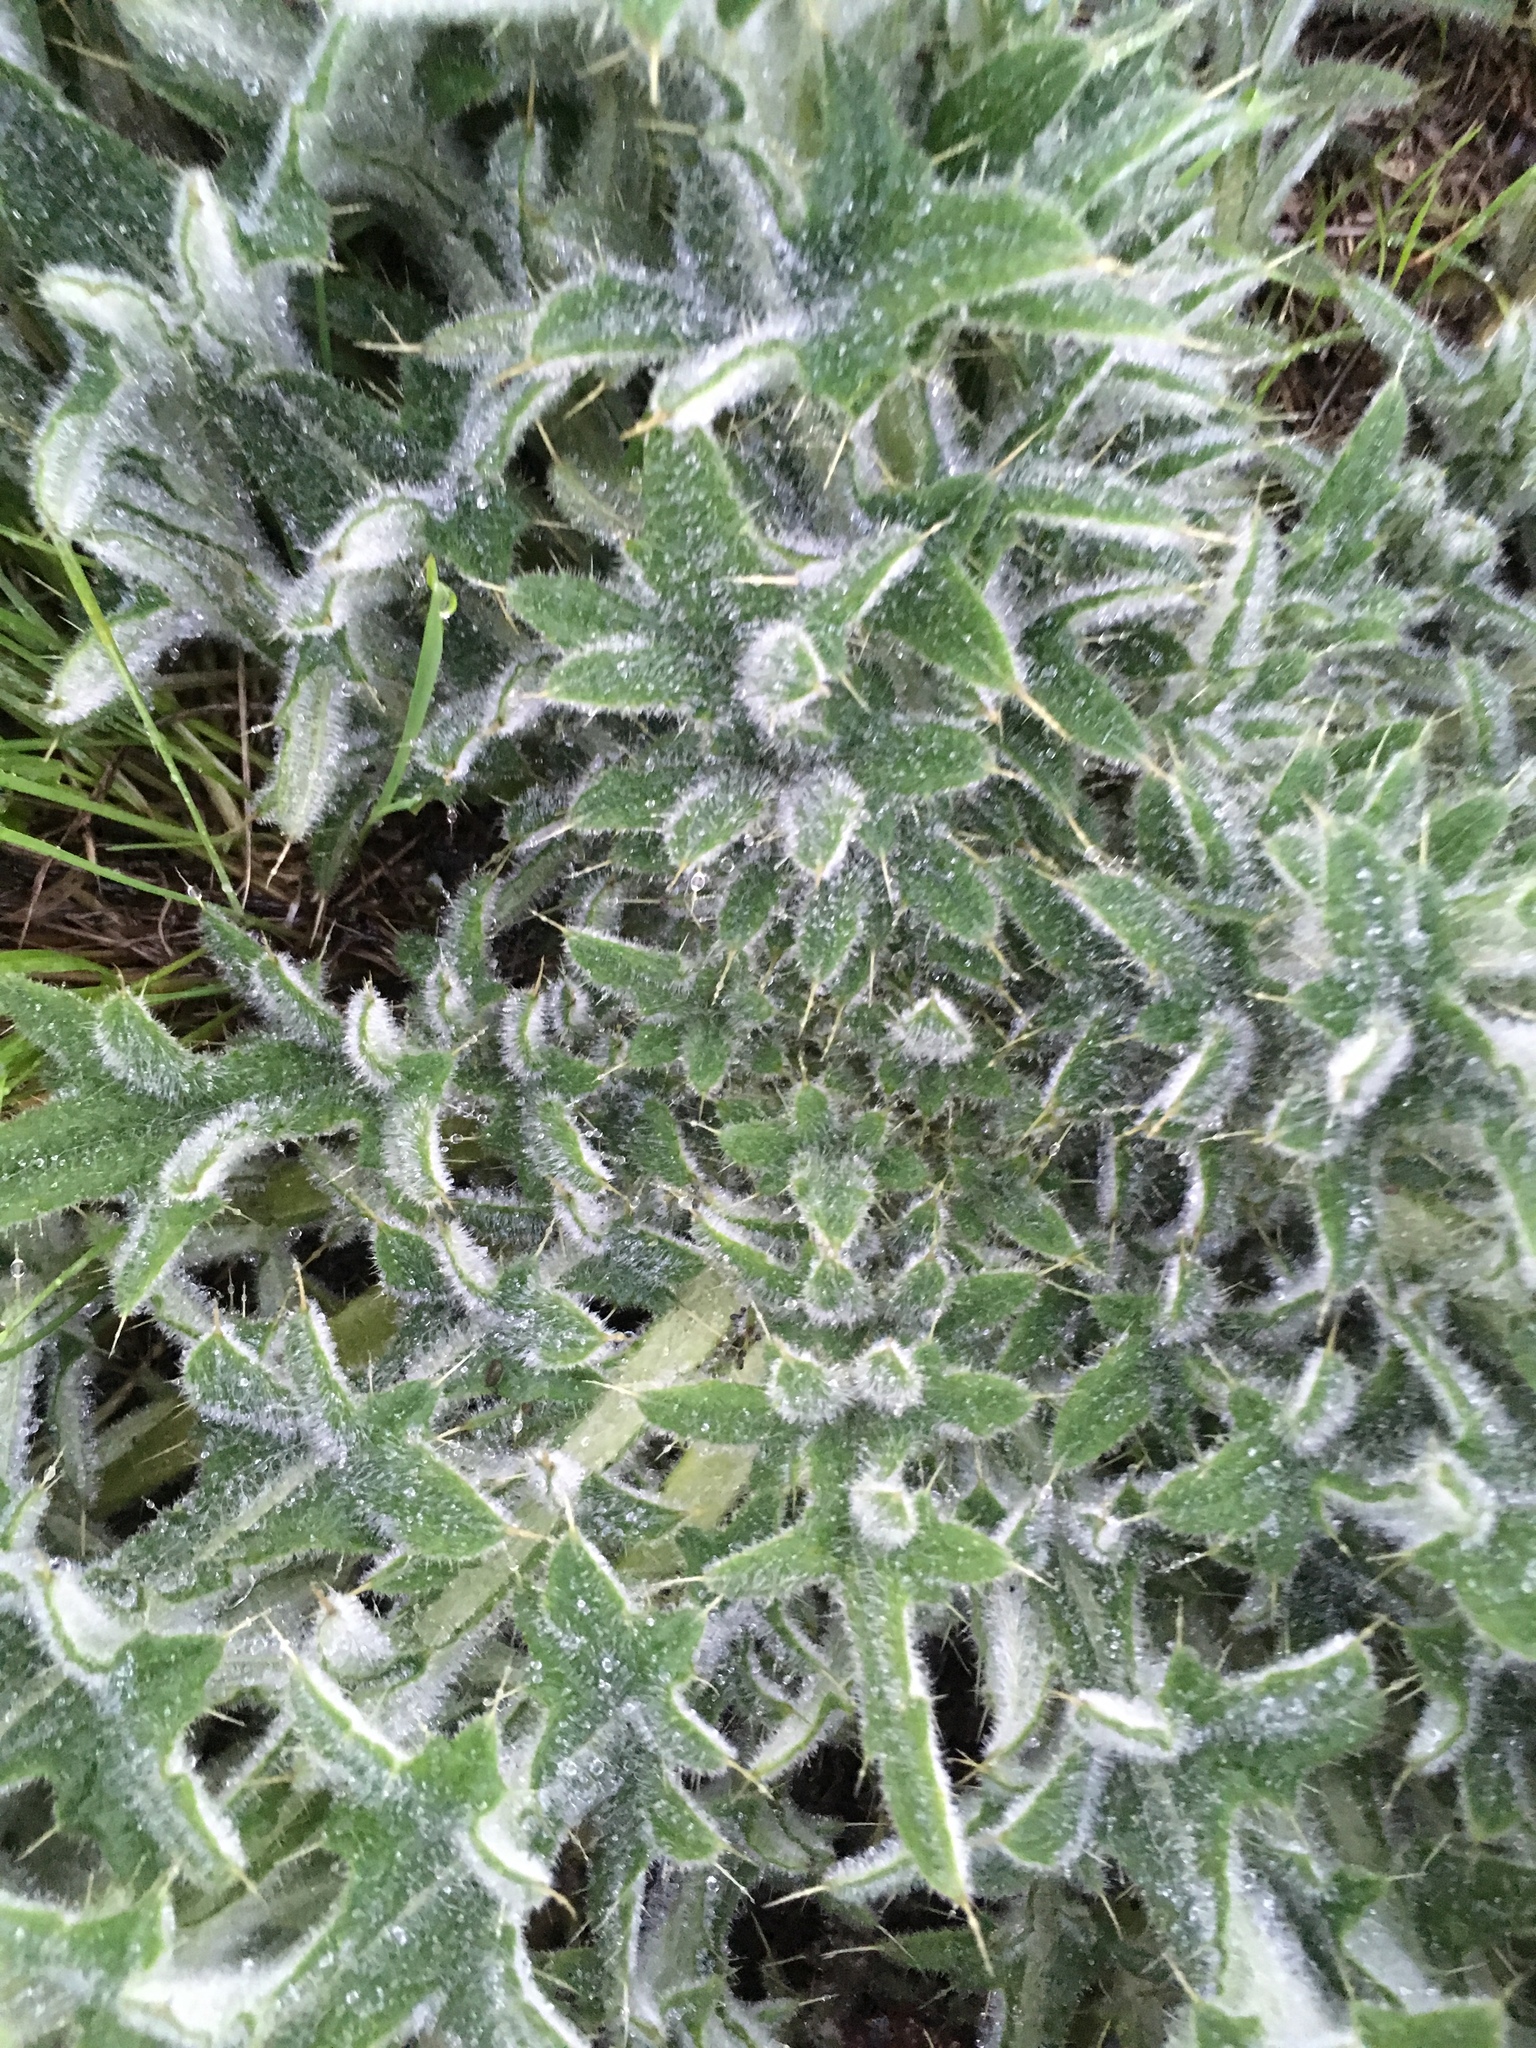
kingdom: Plantae
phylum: Tracheophyta
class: Magnoliopsida
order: Asterales
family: Asteraceae
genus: Cirsium
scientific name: Cirsium vulgare
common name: Bull thistle
